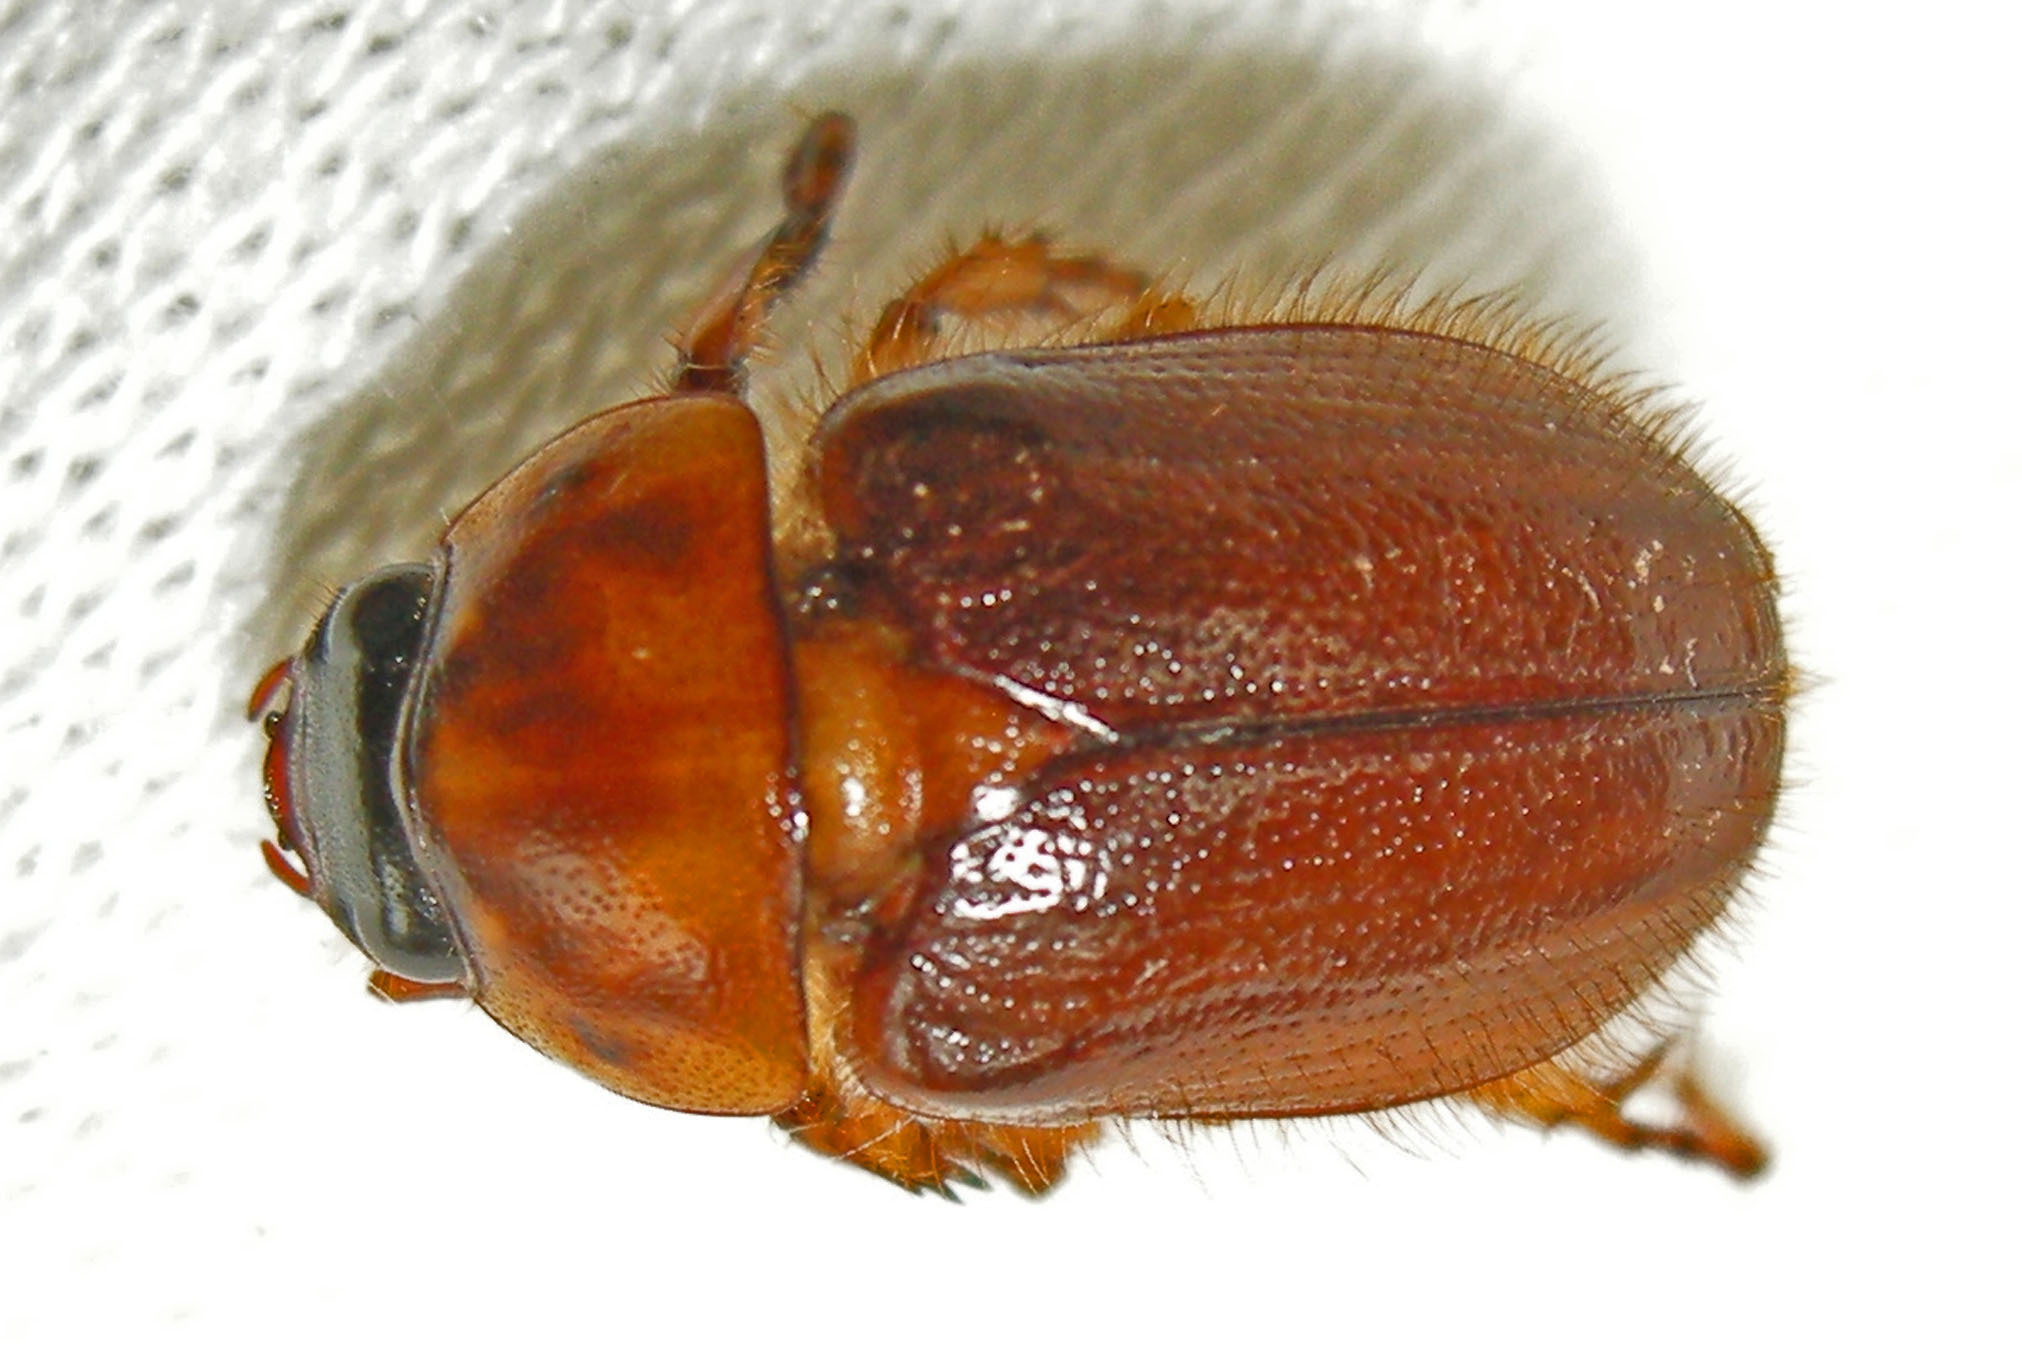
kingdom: Animalia
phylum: Arthropoda
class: Insecta
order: Coleoptera
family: Scarabaeidae
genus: Cyclocephala
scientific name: Cyclocephala borealis
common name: Northern masked chafer
